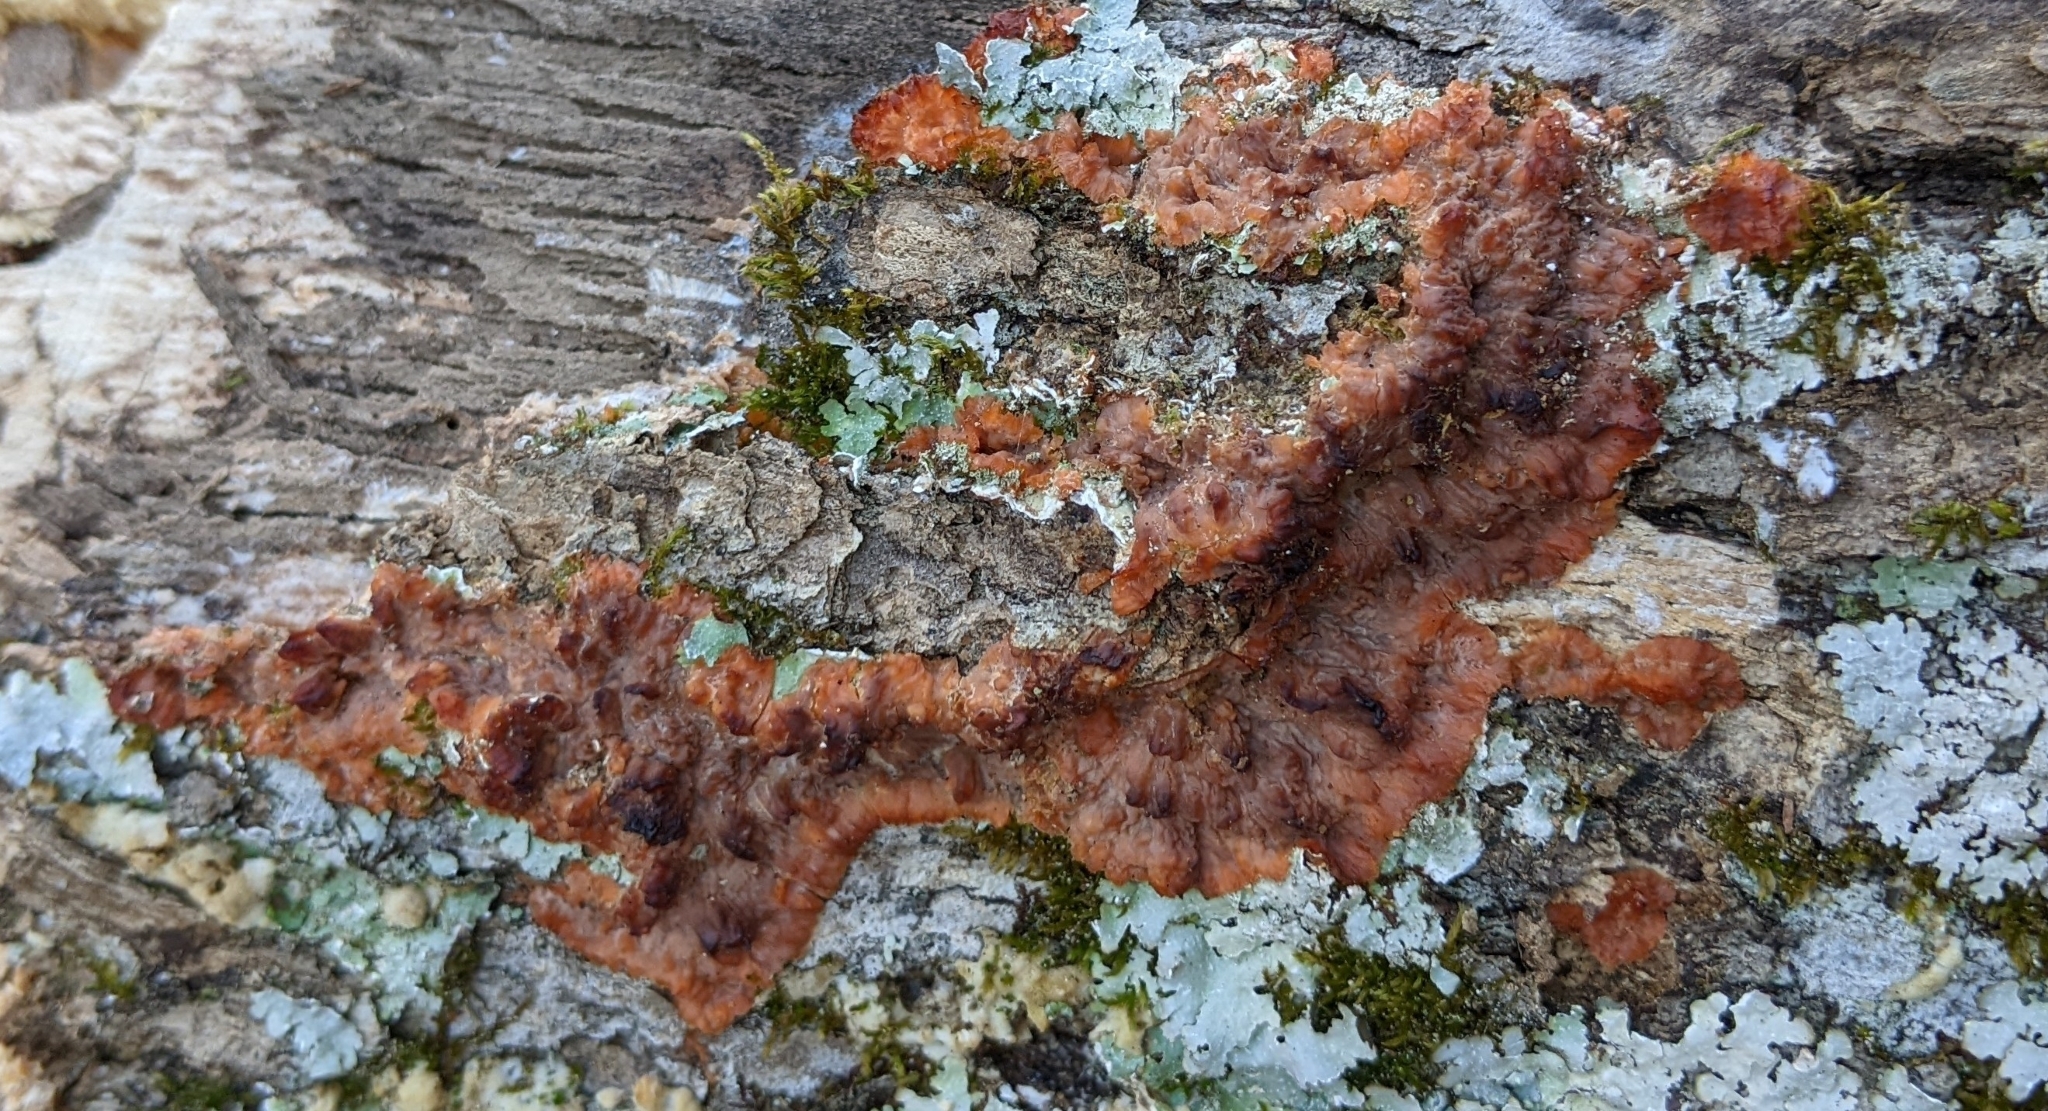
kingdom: Fungi
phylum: Basidiomycota
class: Agaricomycetes
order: Polyporales
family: Meruliaceae
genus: Phlebia
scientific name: Phlebia radiata
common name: Wrinkled crust
